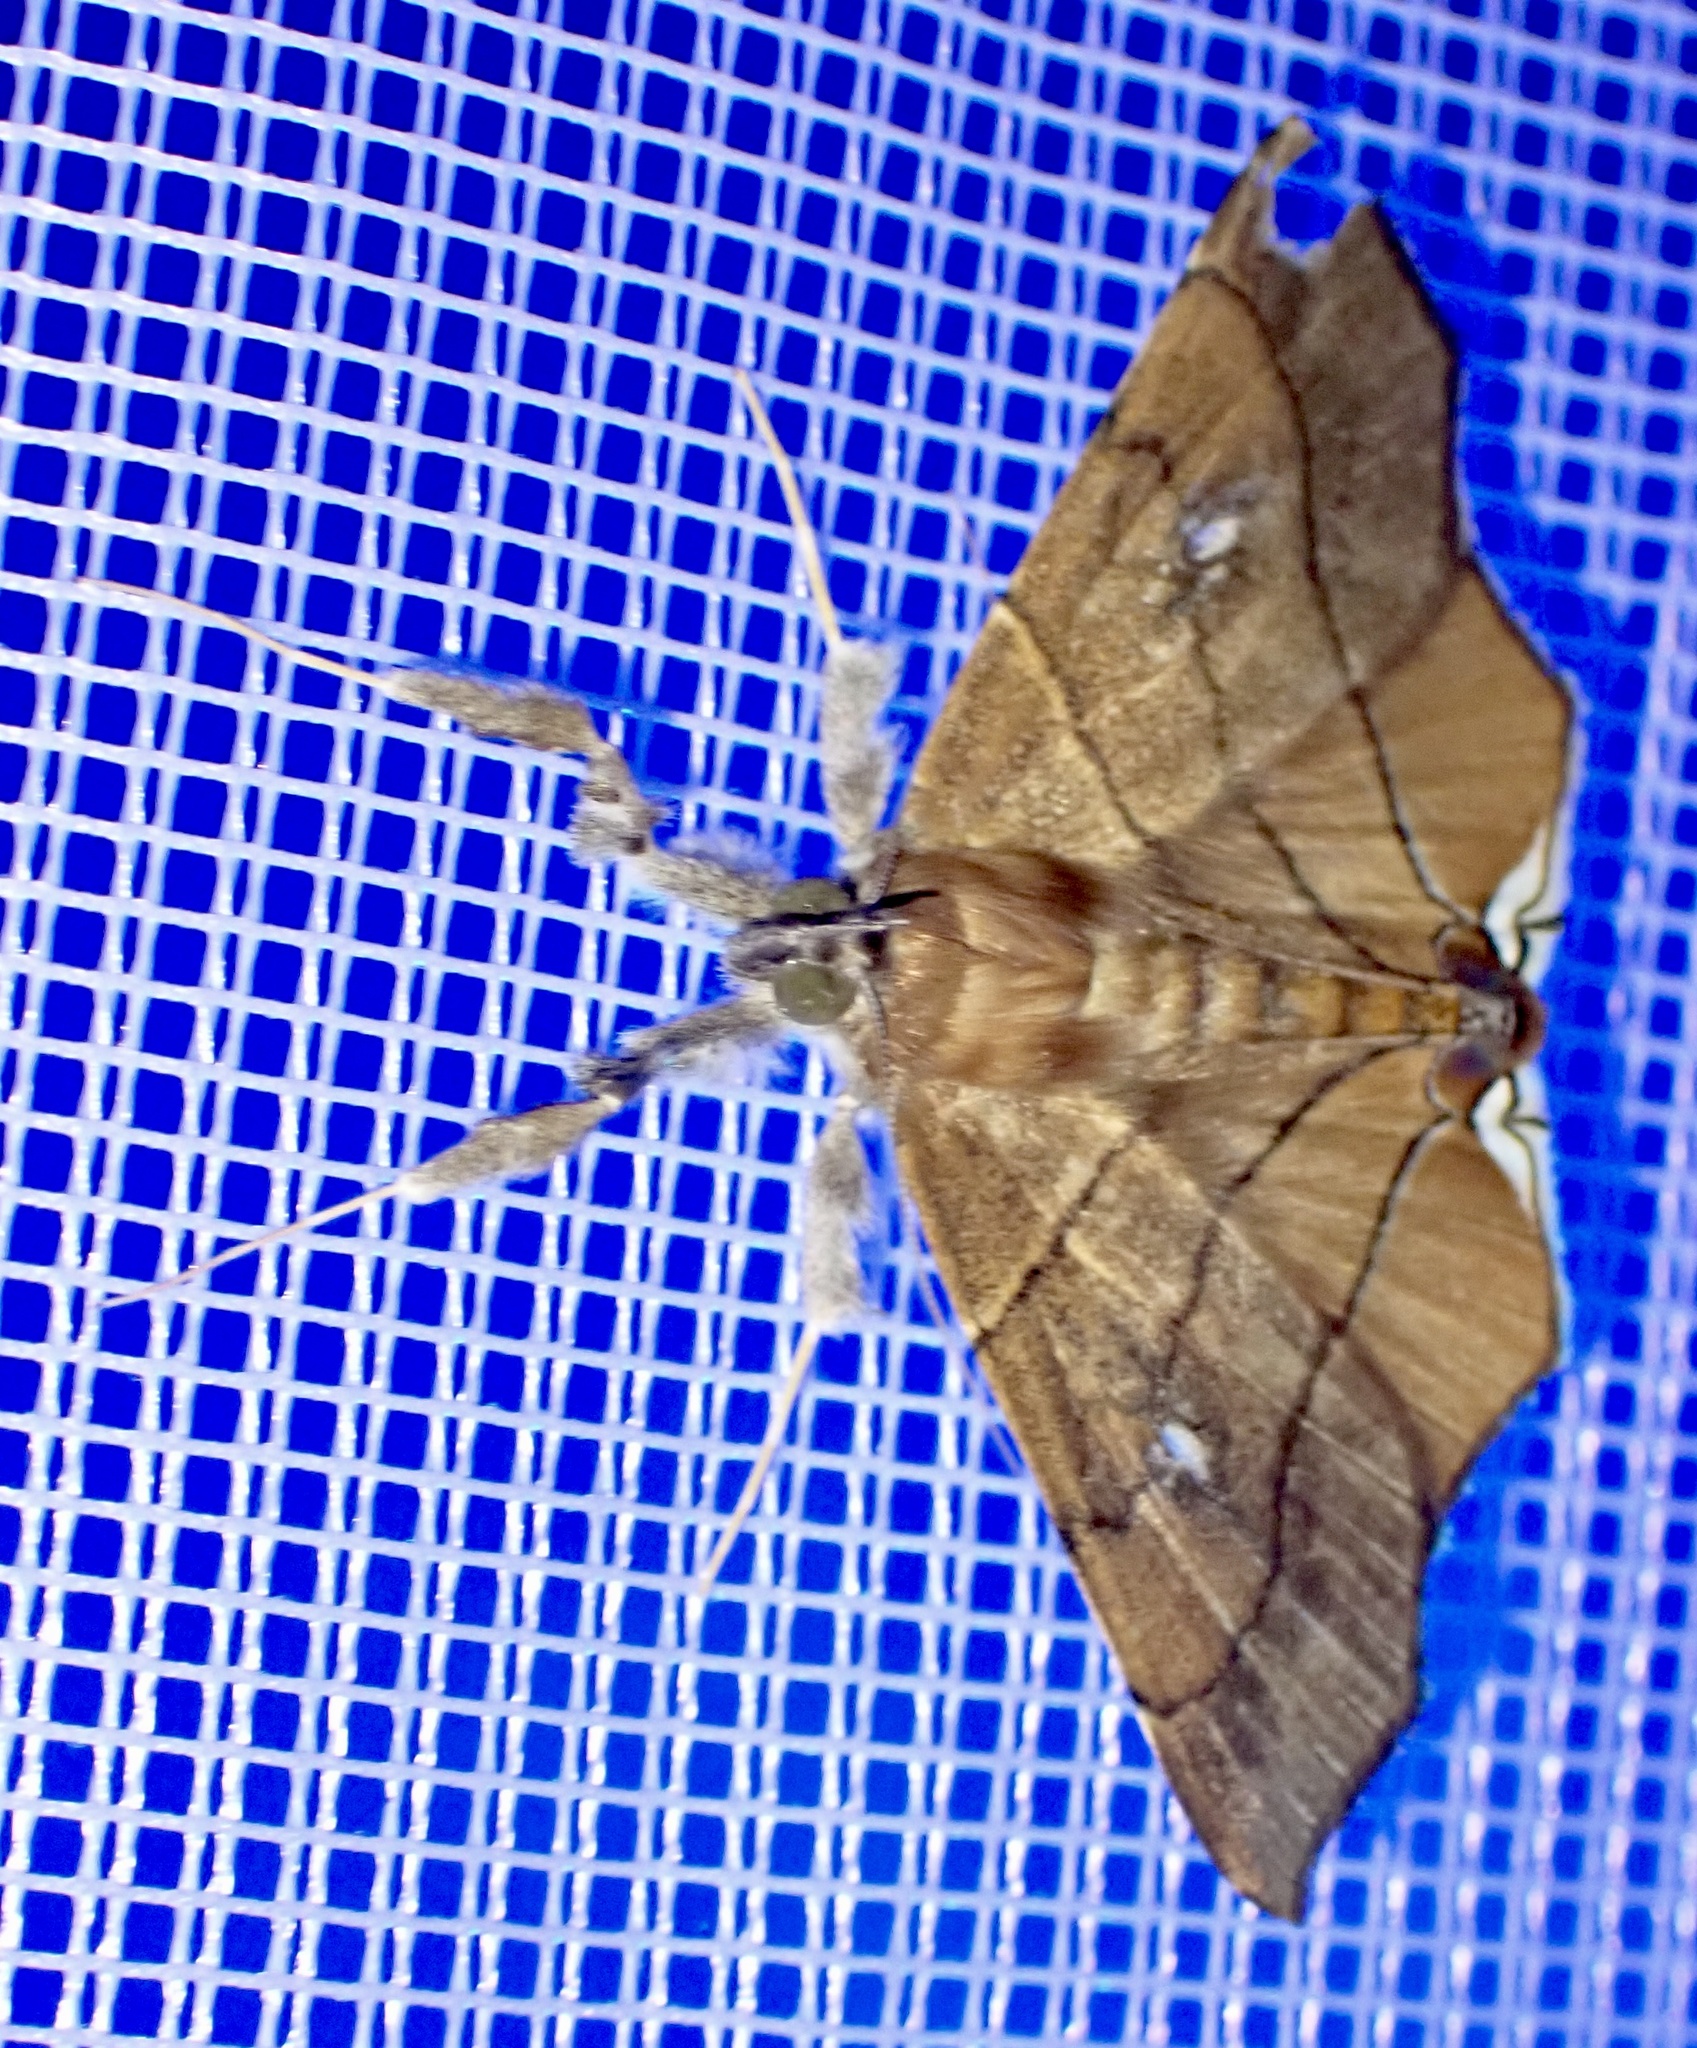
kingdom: Animalia
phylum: Arthropoda
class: Insecta
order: Lepidoptera
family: Erebidae
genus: Gracilodes
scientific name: Gracilodes nysa
